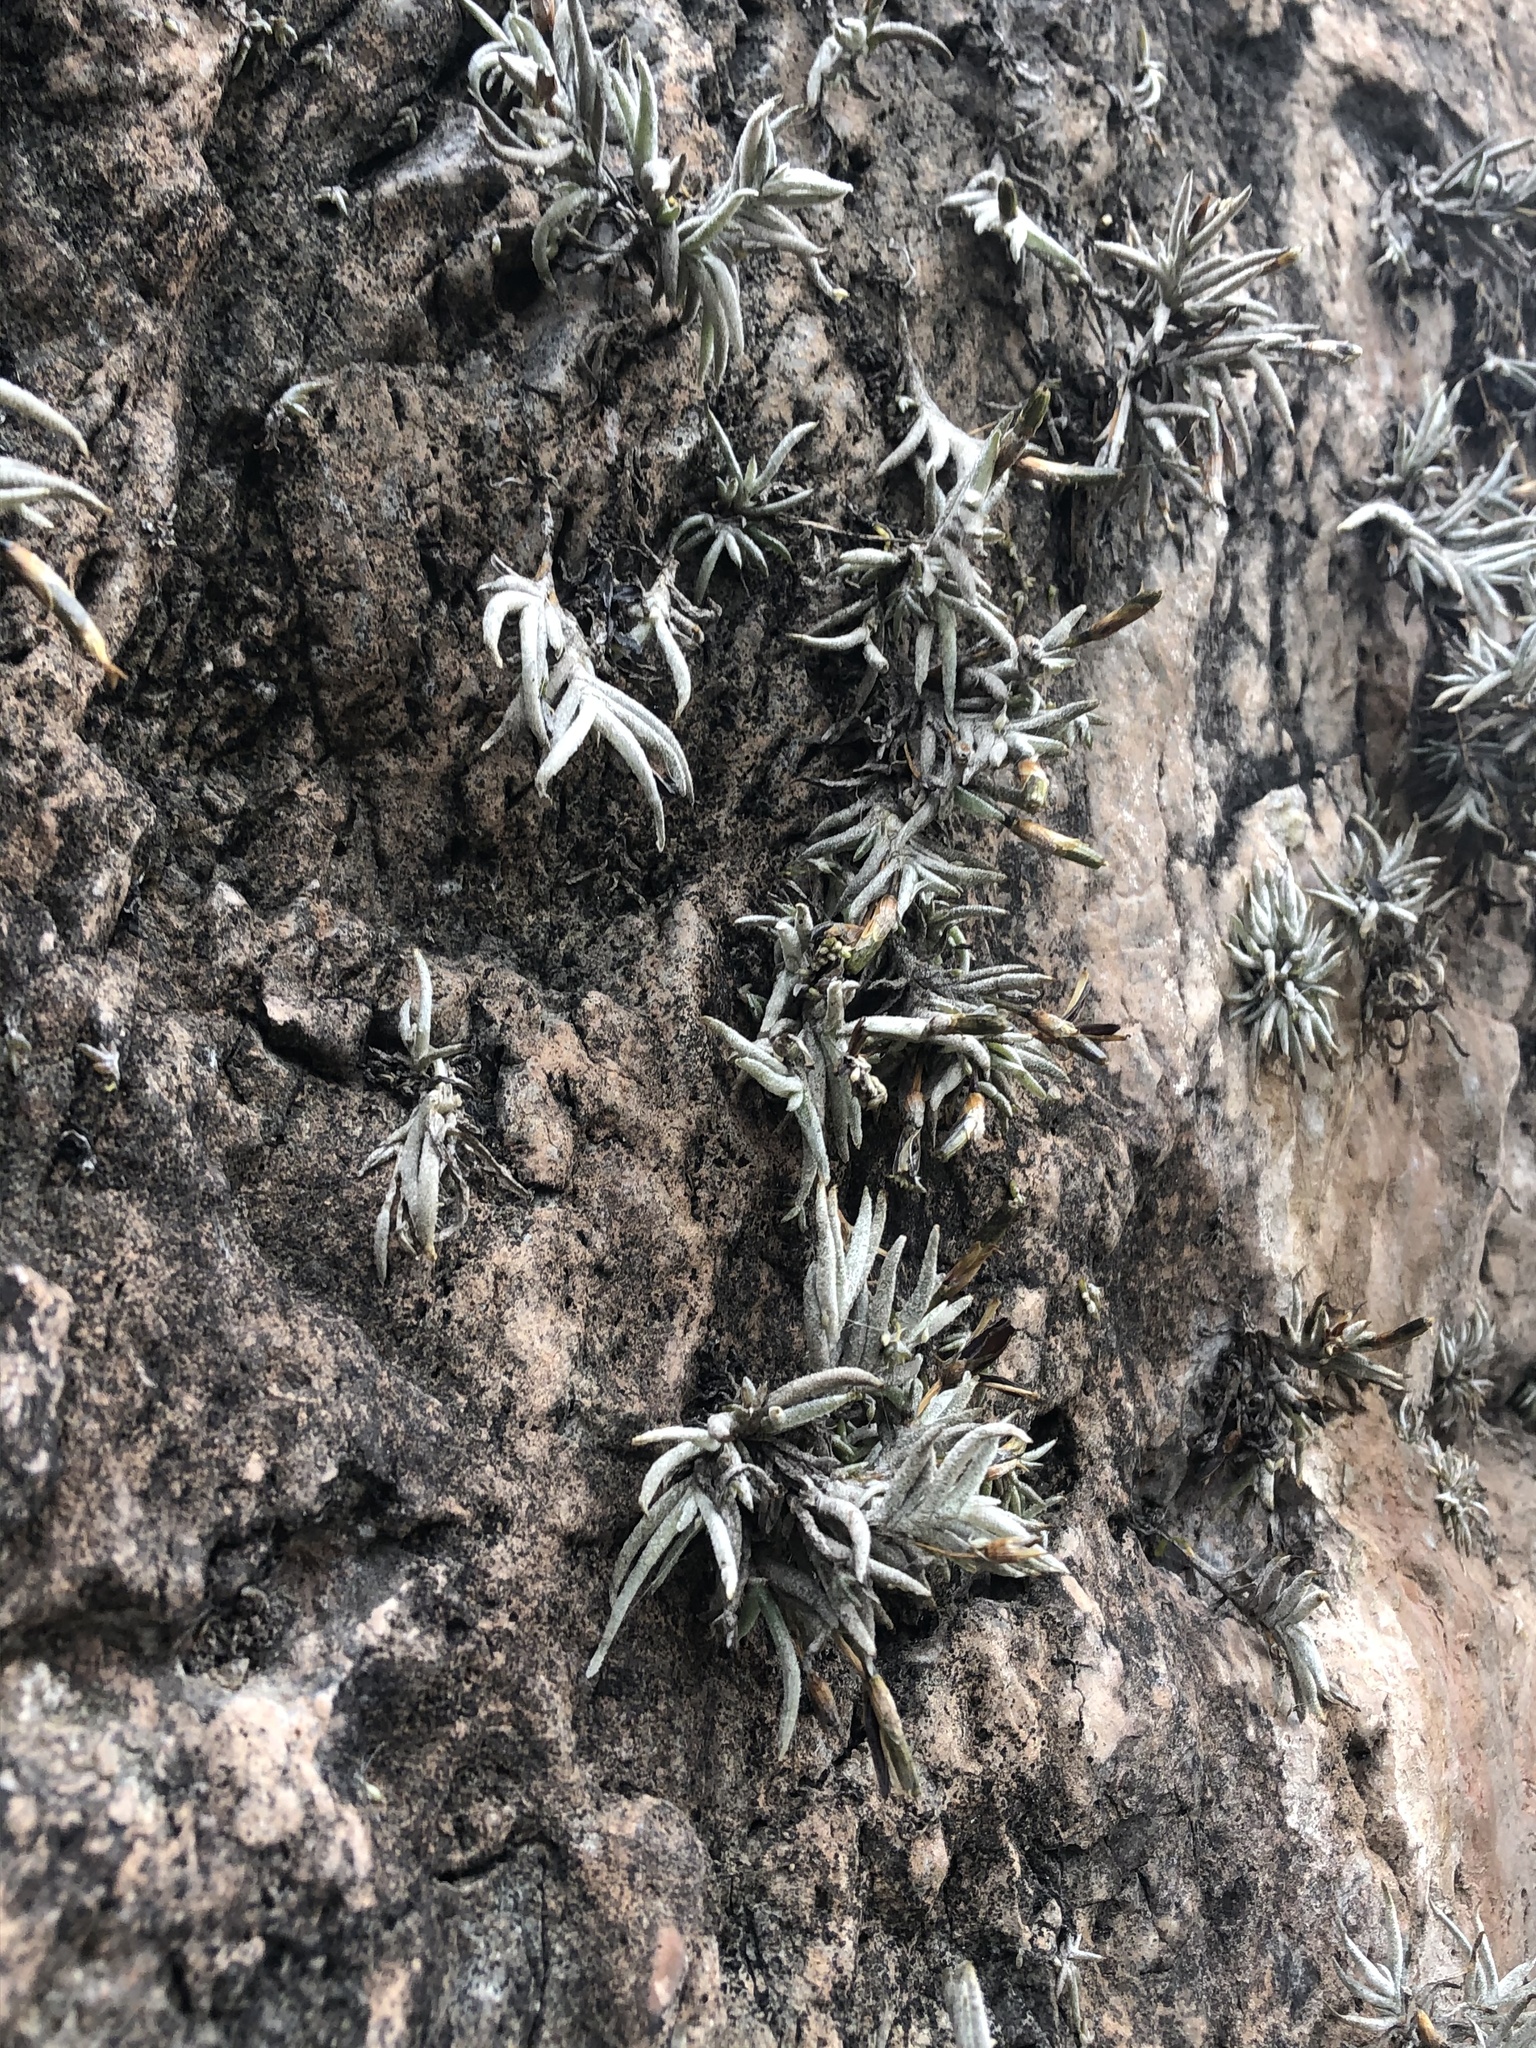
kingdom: Plantae
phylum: Tracheophyta
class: Liliopsida
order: Poales
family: Bromeliaceae
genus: Tillandsia
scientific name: Tillandsia virescens
